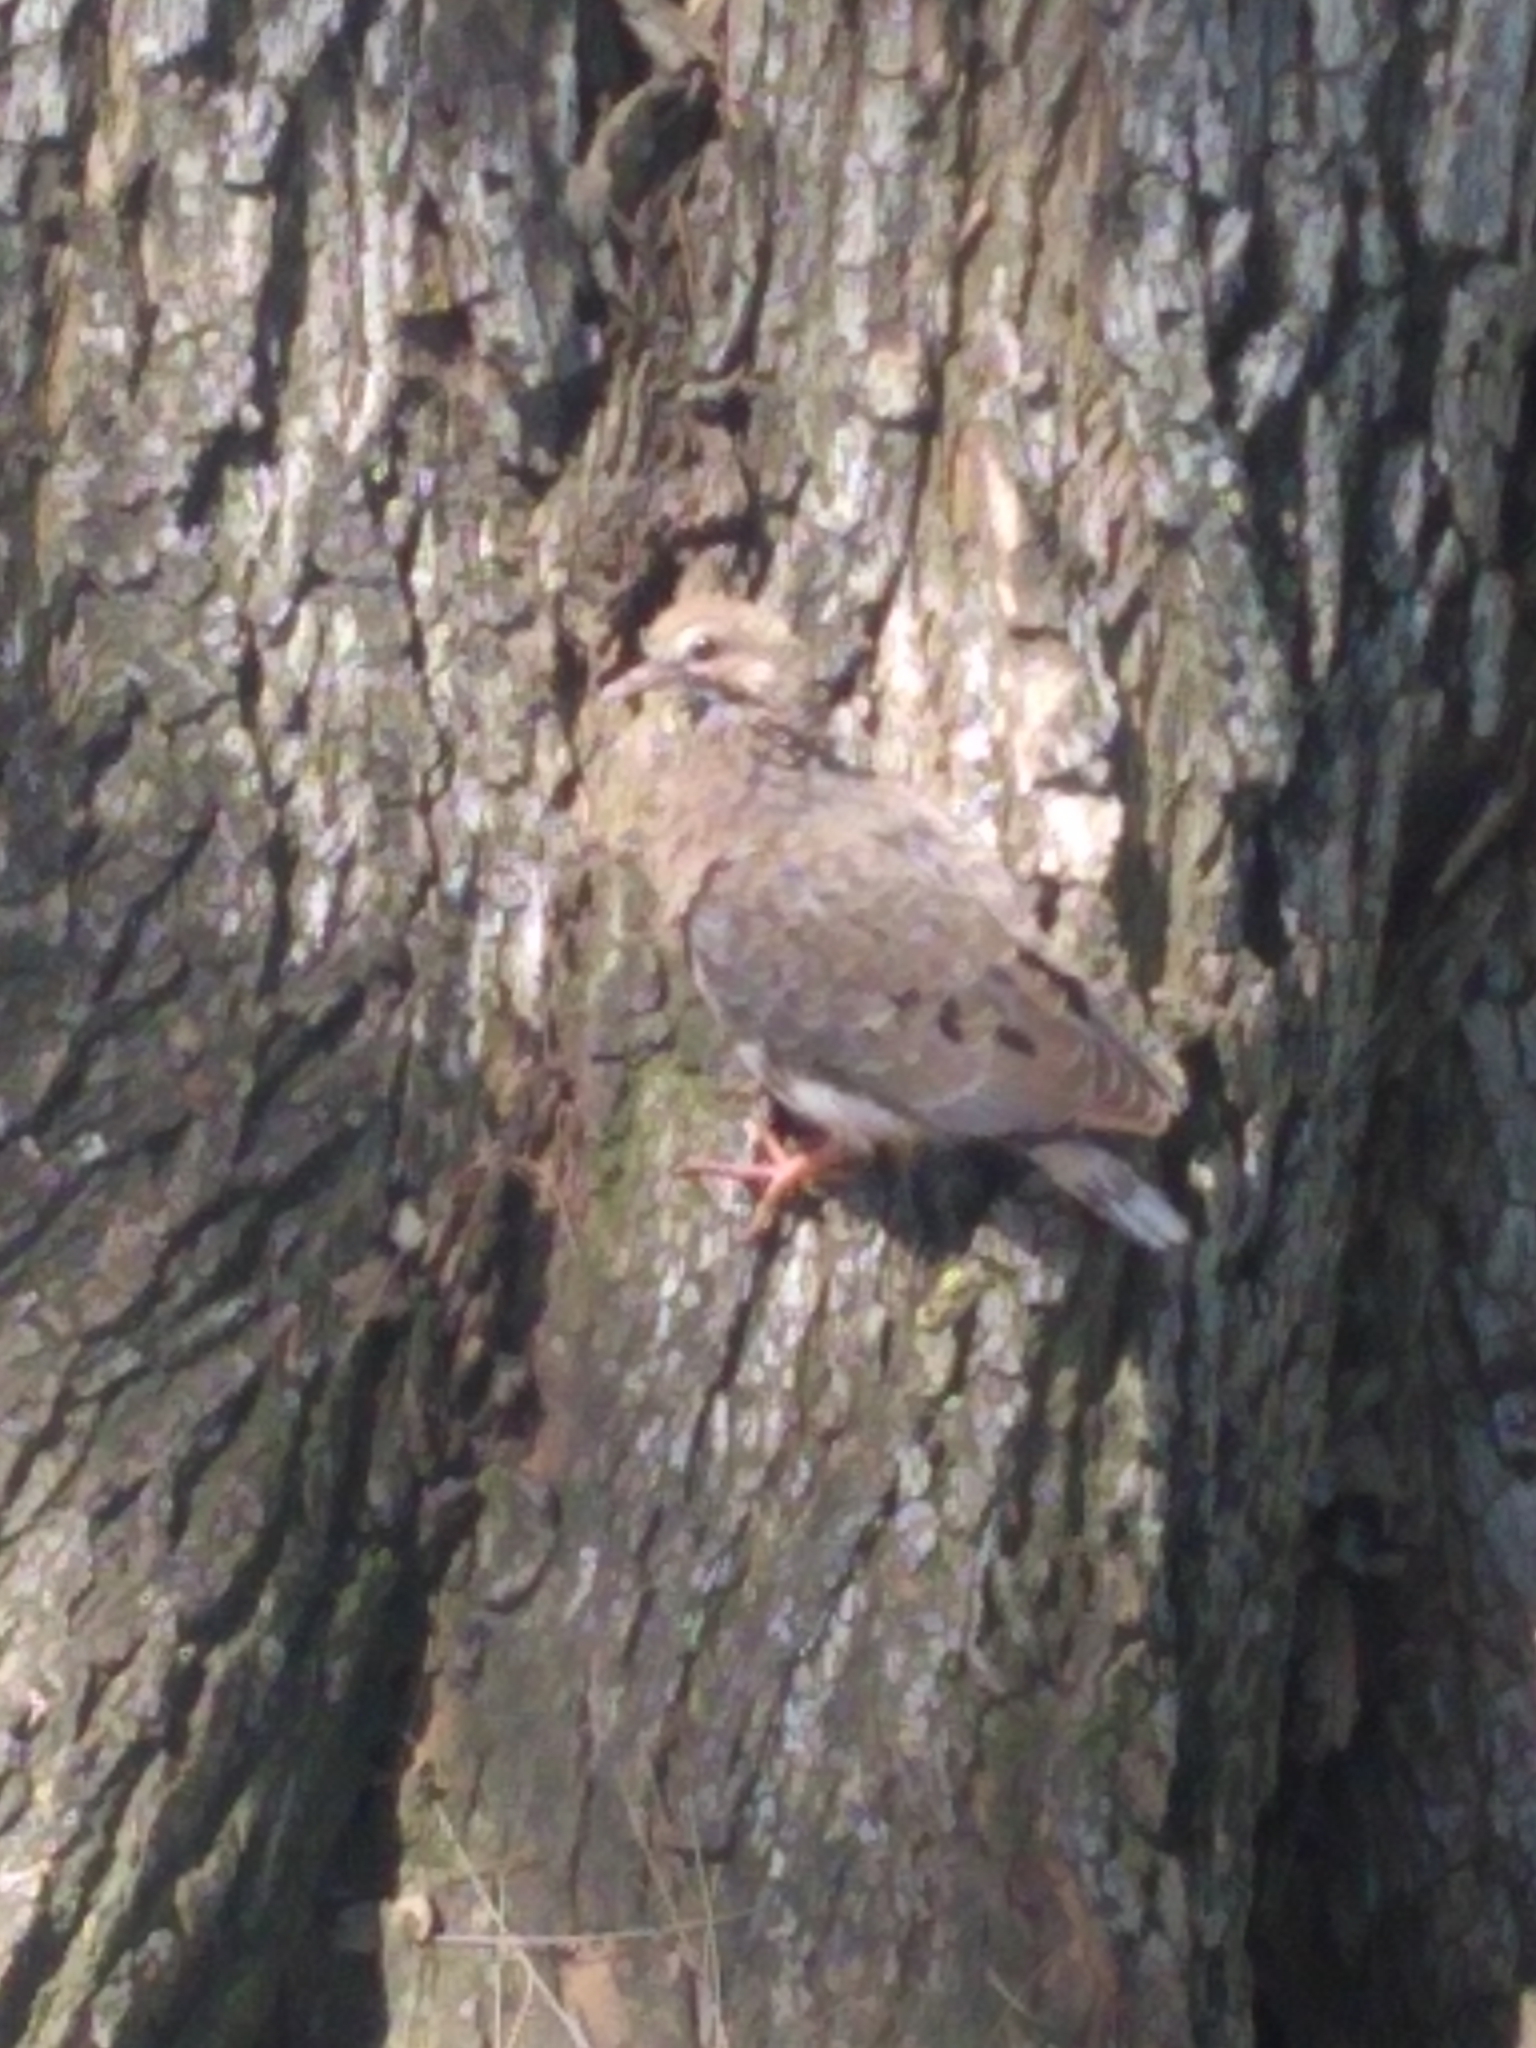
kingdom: Animalia
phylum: Chordata
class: Aves
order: Columbiformes
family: Columbidae
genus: Zenaida
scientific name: Zenaida auriculata
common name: Eared dove
